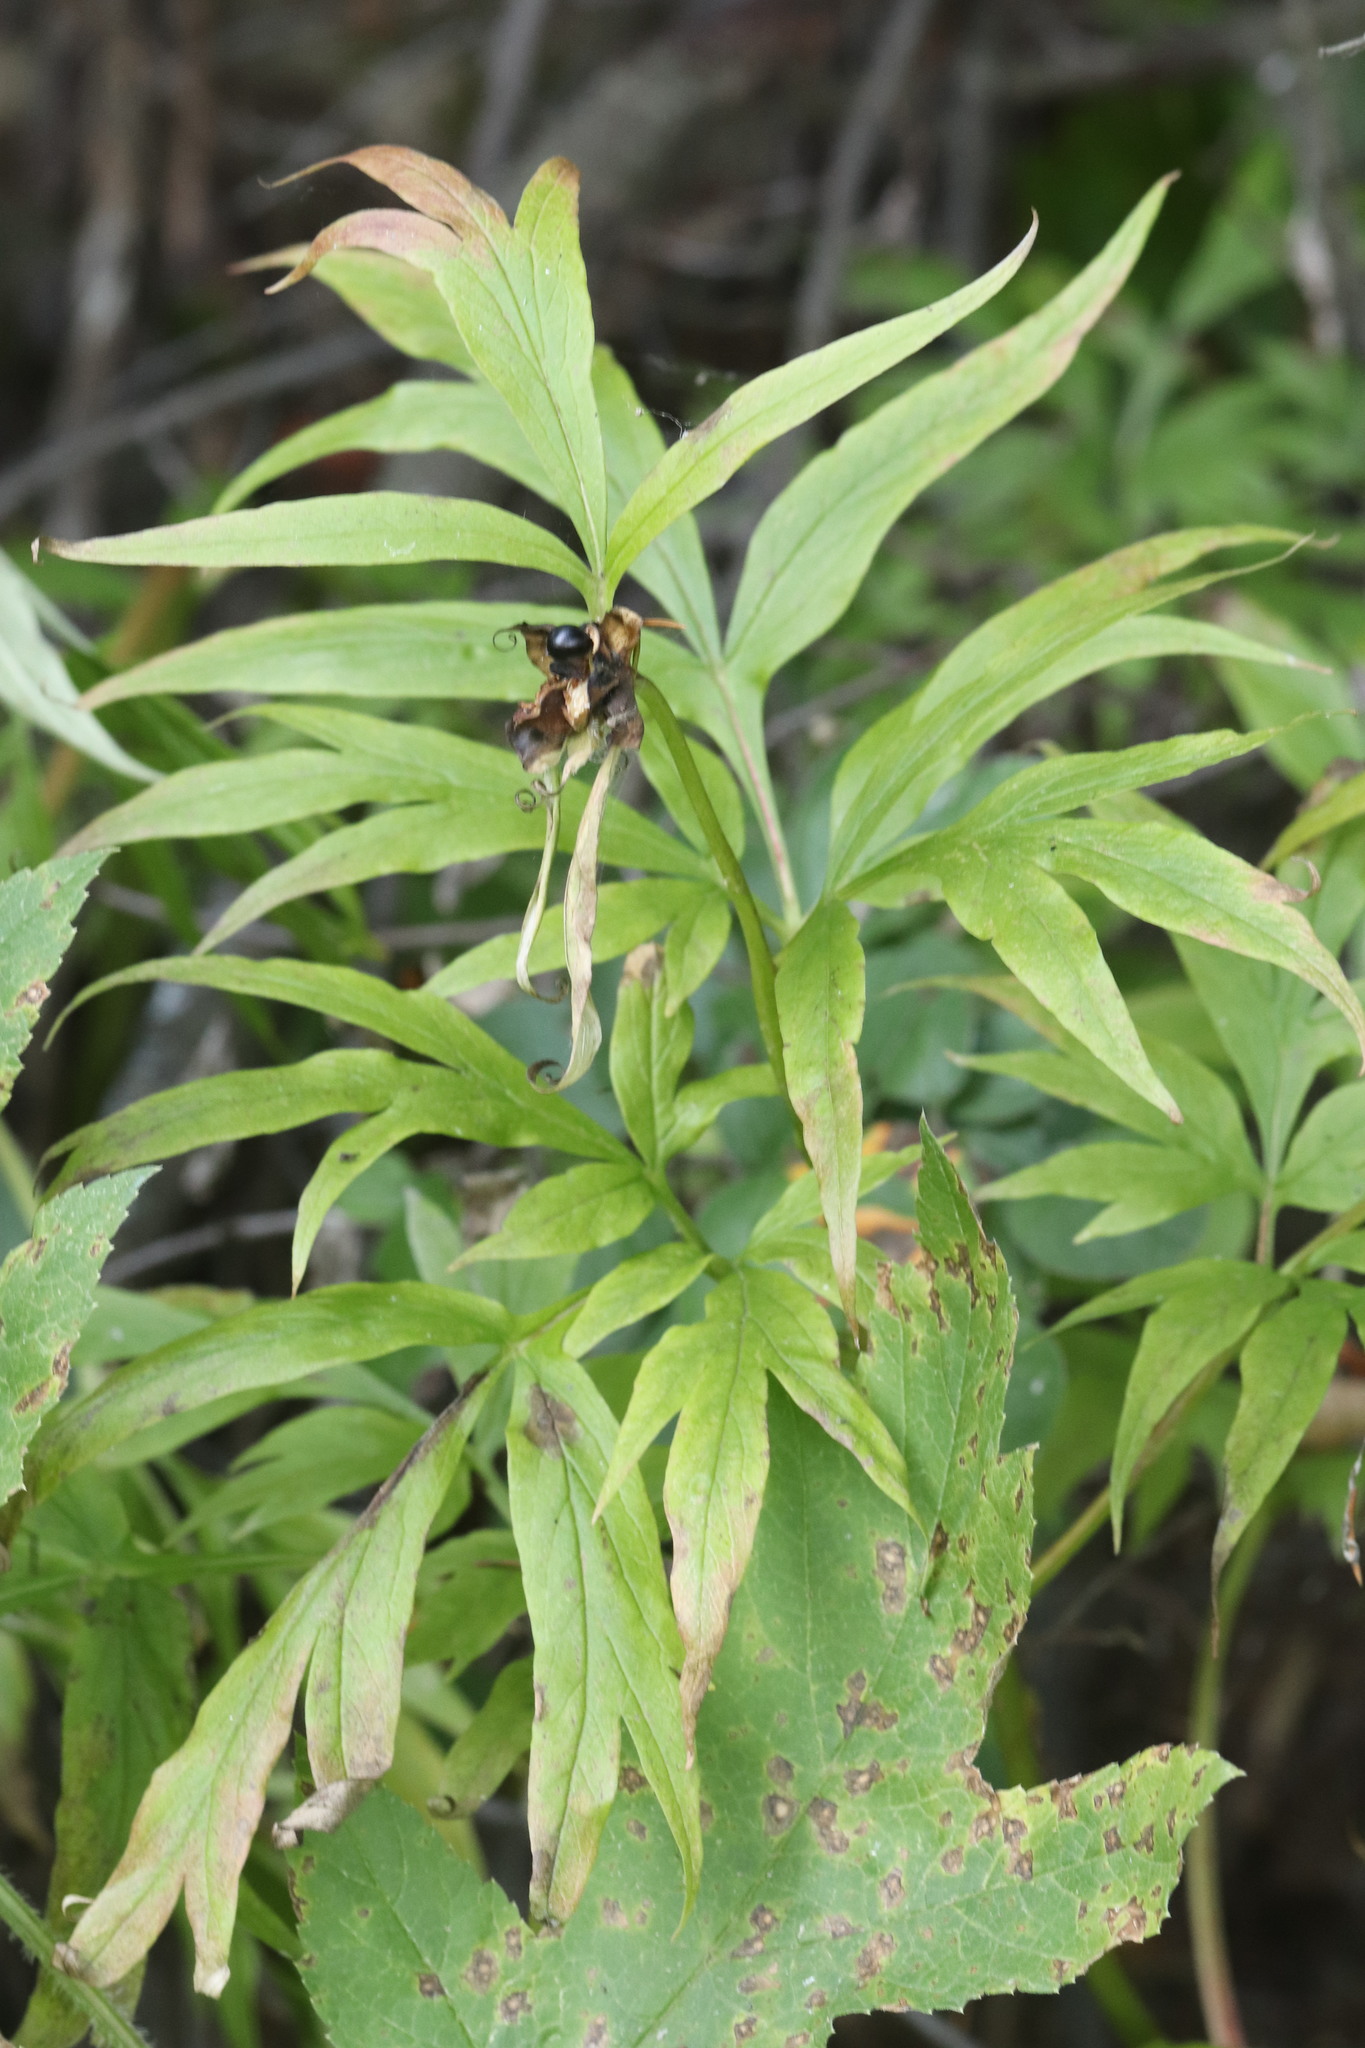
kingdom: Plantae
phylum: Tracheophyta
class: Magnoliopsida
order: Saxifragales
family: Paeoniaceae
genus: Paeonia
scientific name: Paeonia anomala
